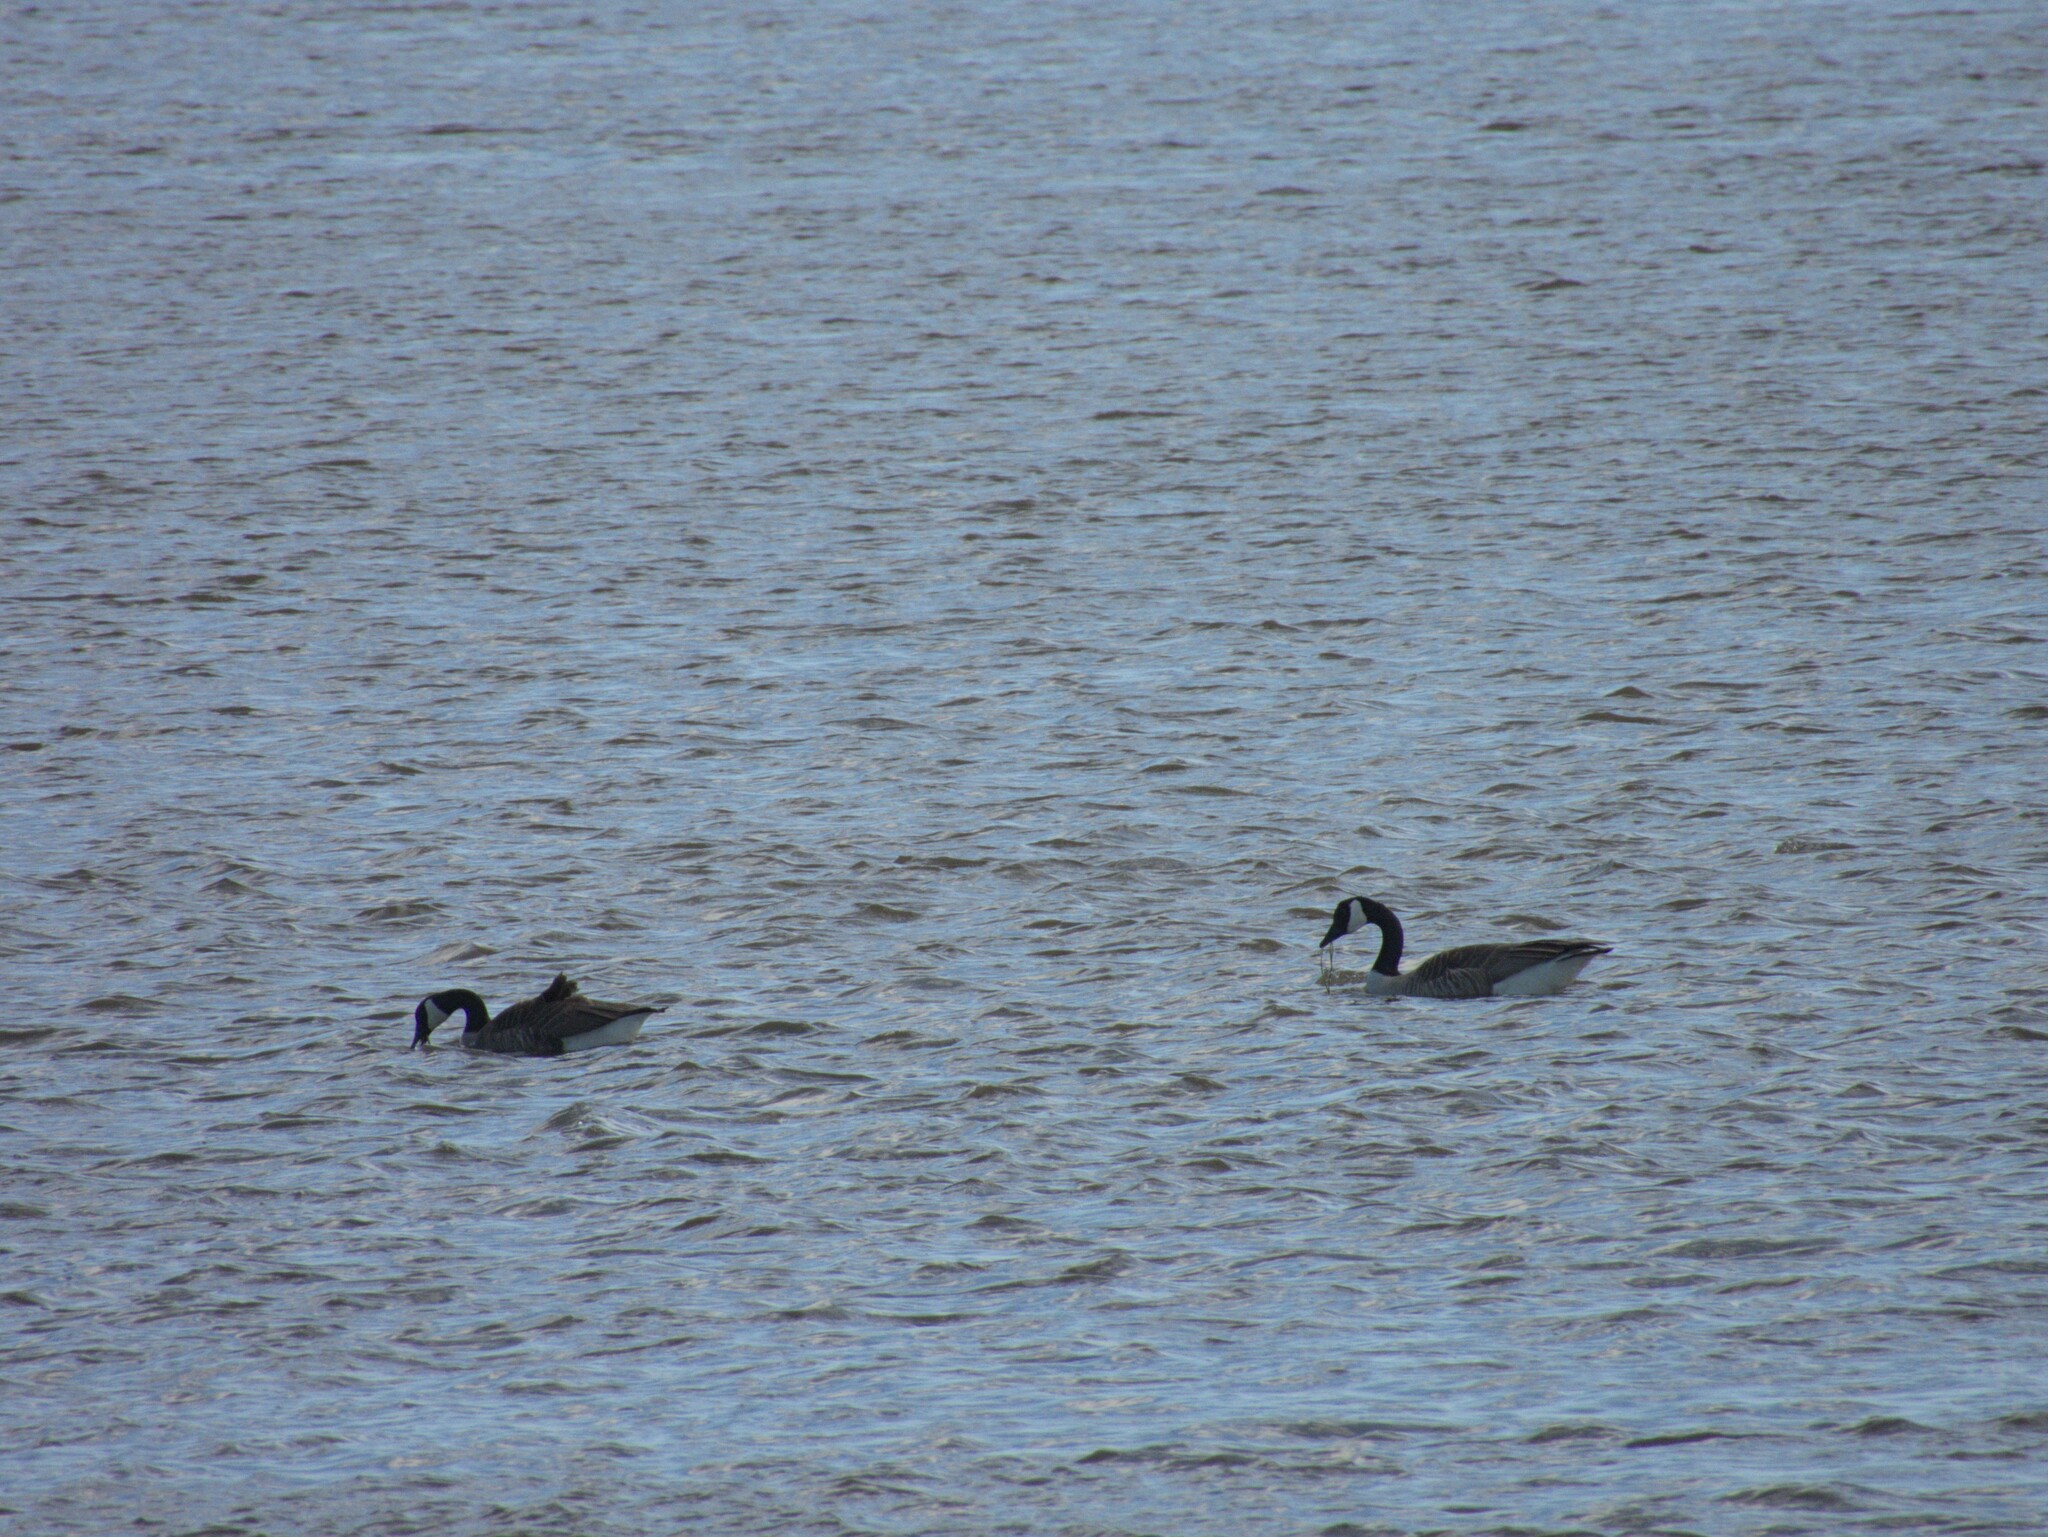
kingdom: Animalia
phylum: Chordata
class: Aves
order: Anseriformes
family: Anatidae
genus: Branta
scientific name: Branta canadensis
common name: Canada goose
